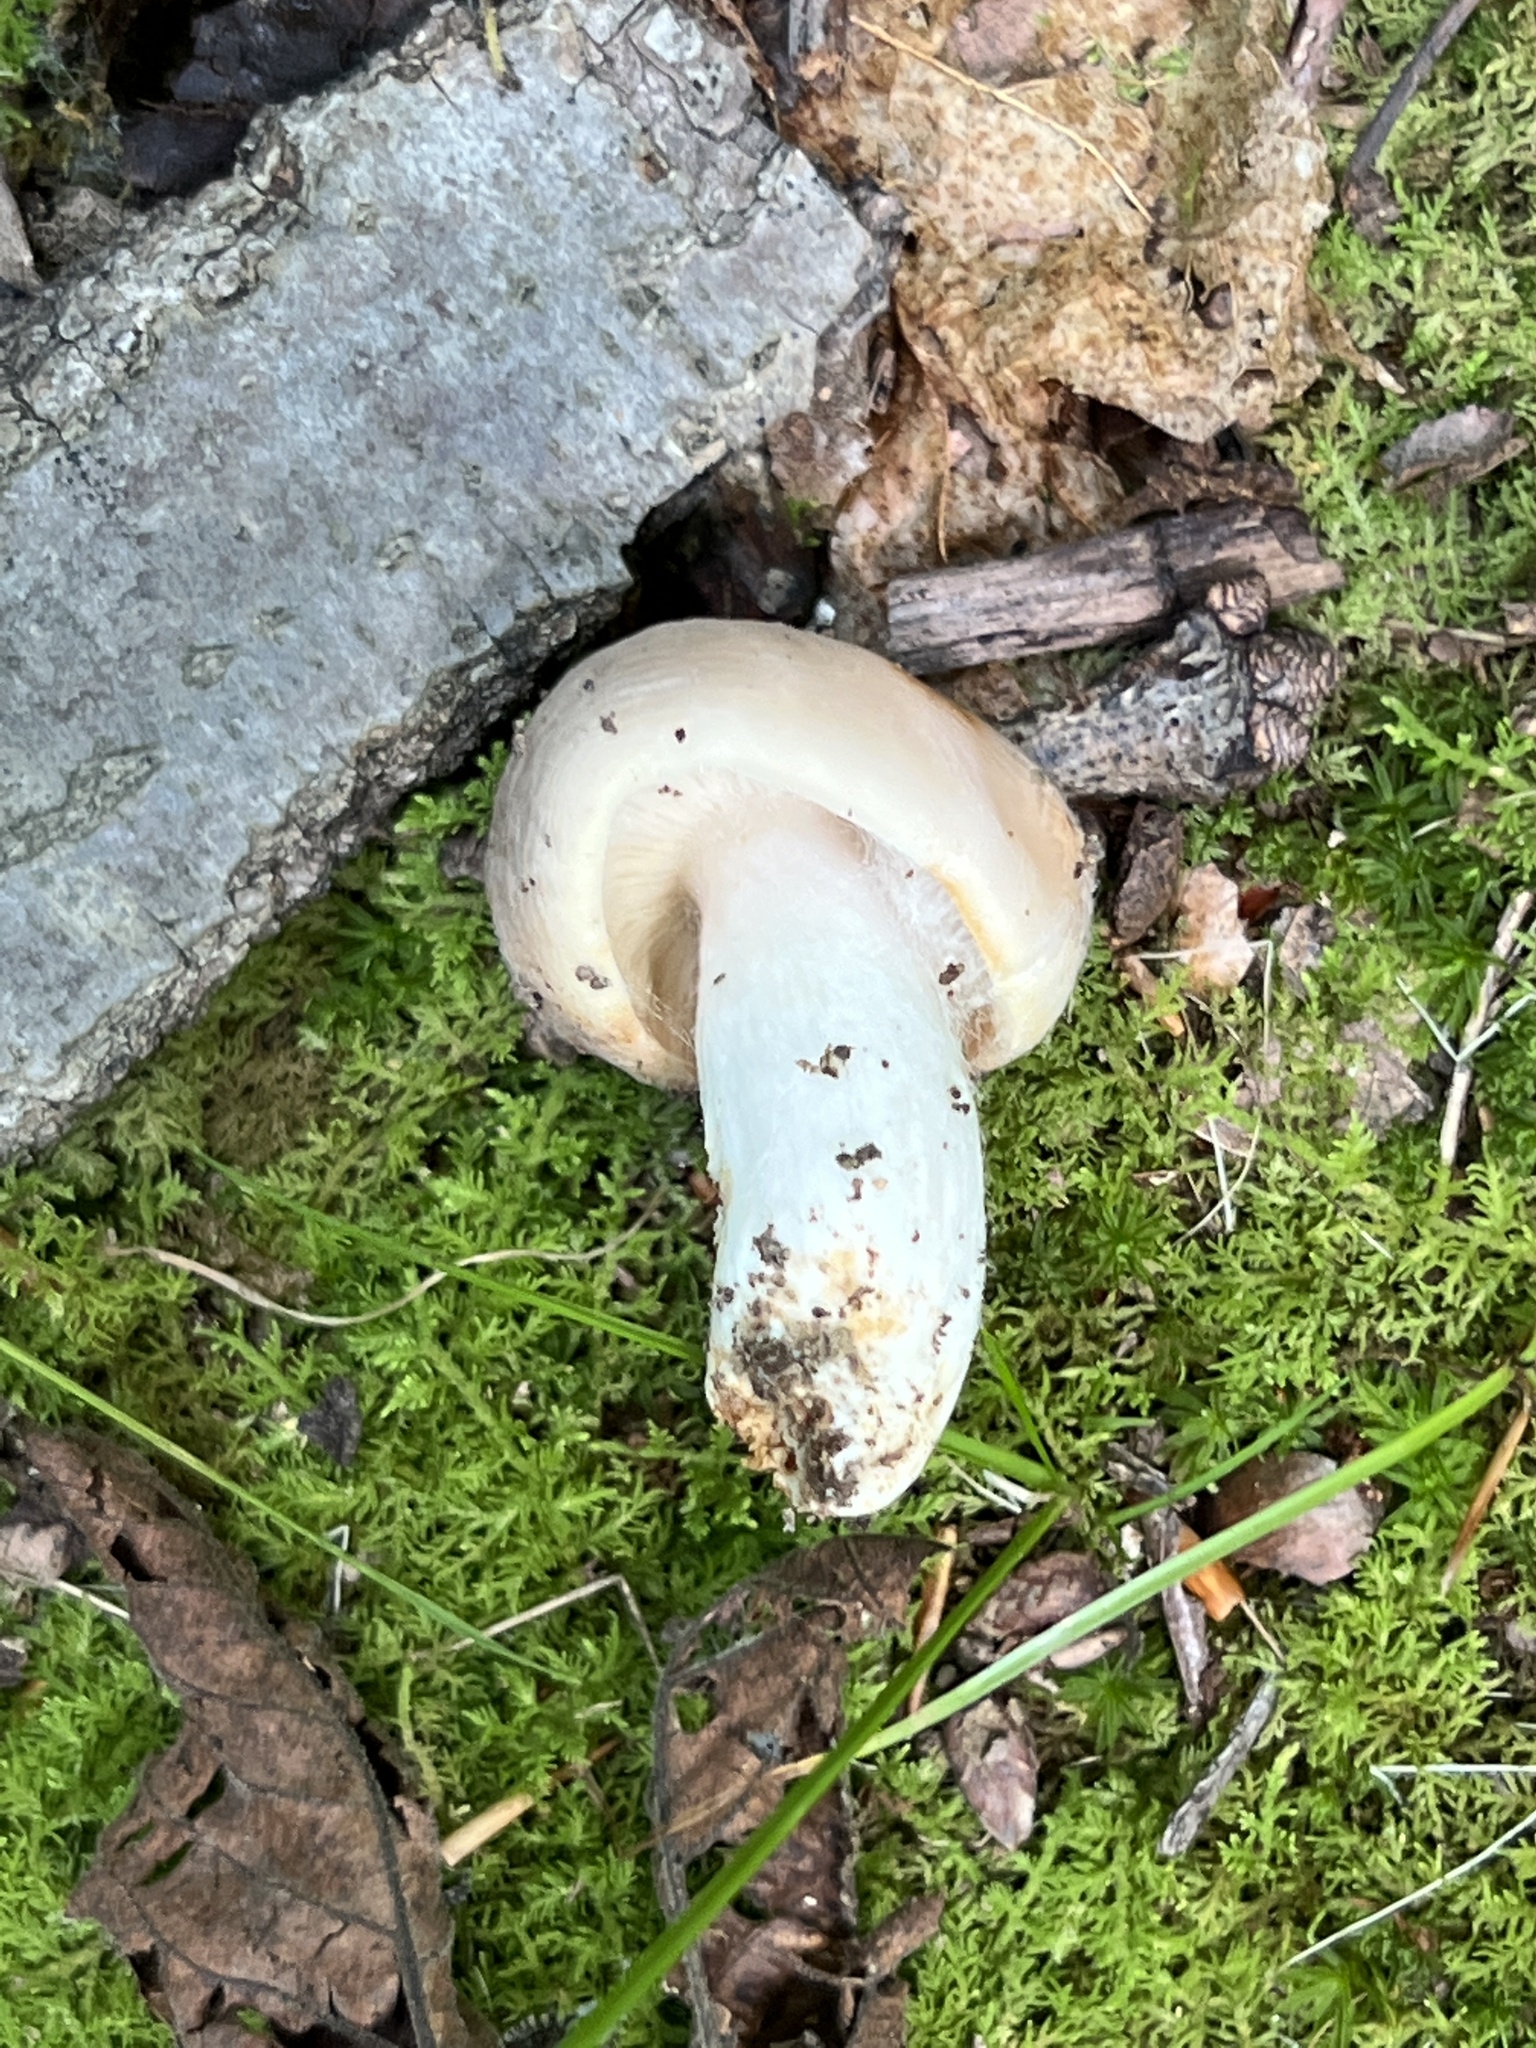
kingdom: Fungi
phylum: Basidiomycota
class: Agaricomycetes
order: Russulales
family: Russulaceae
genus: Russula
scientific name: Russula crustosa
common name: Green quilt russula
